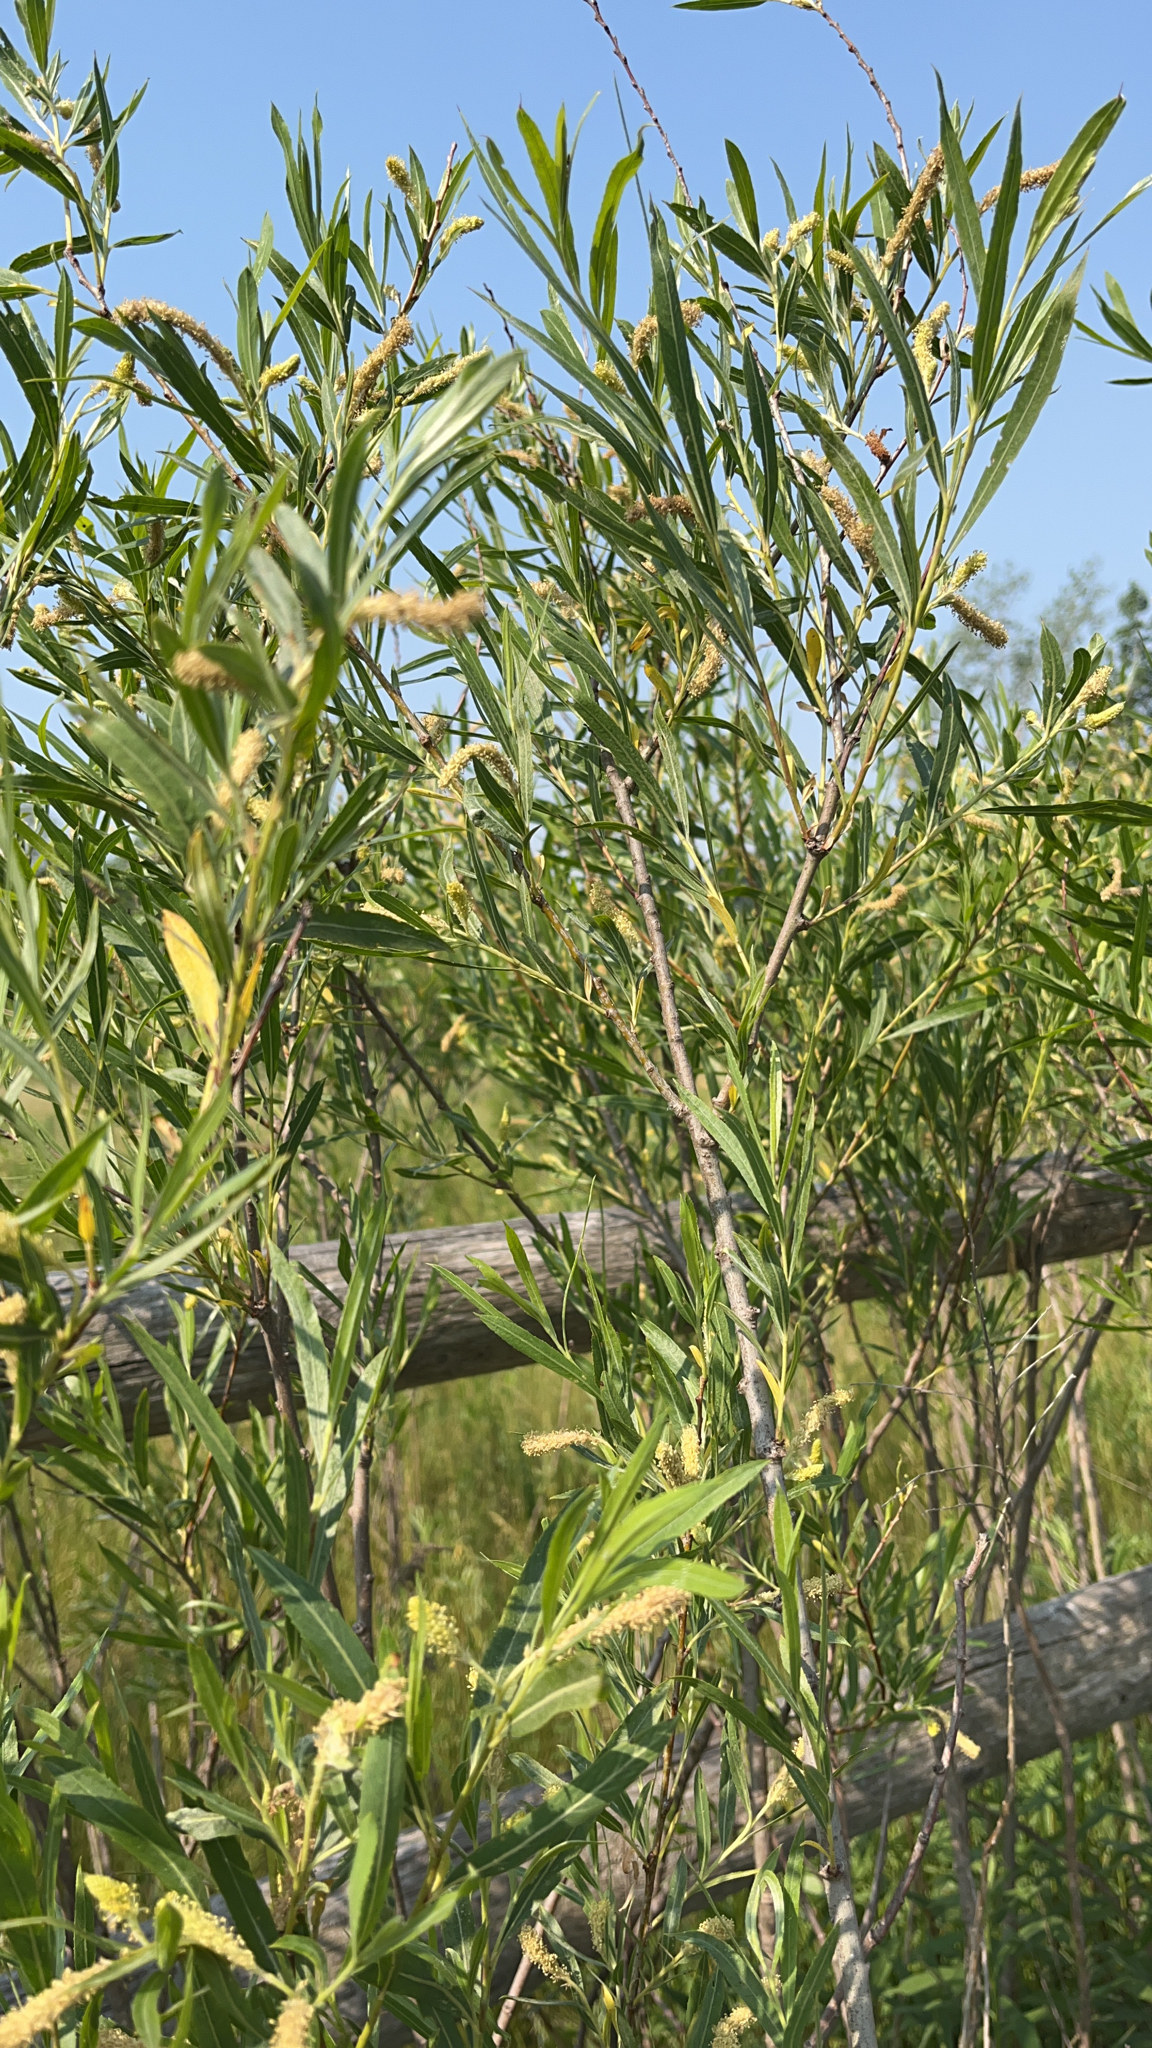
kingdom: Plantae
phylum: Tracheophyta
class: Magnoliopsida
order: Malpighiales
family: Salicaceae
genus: Salix
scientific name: Salix interior
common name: Sandbar willow
